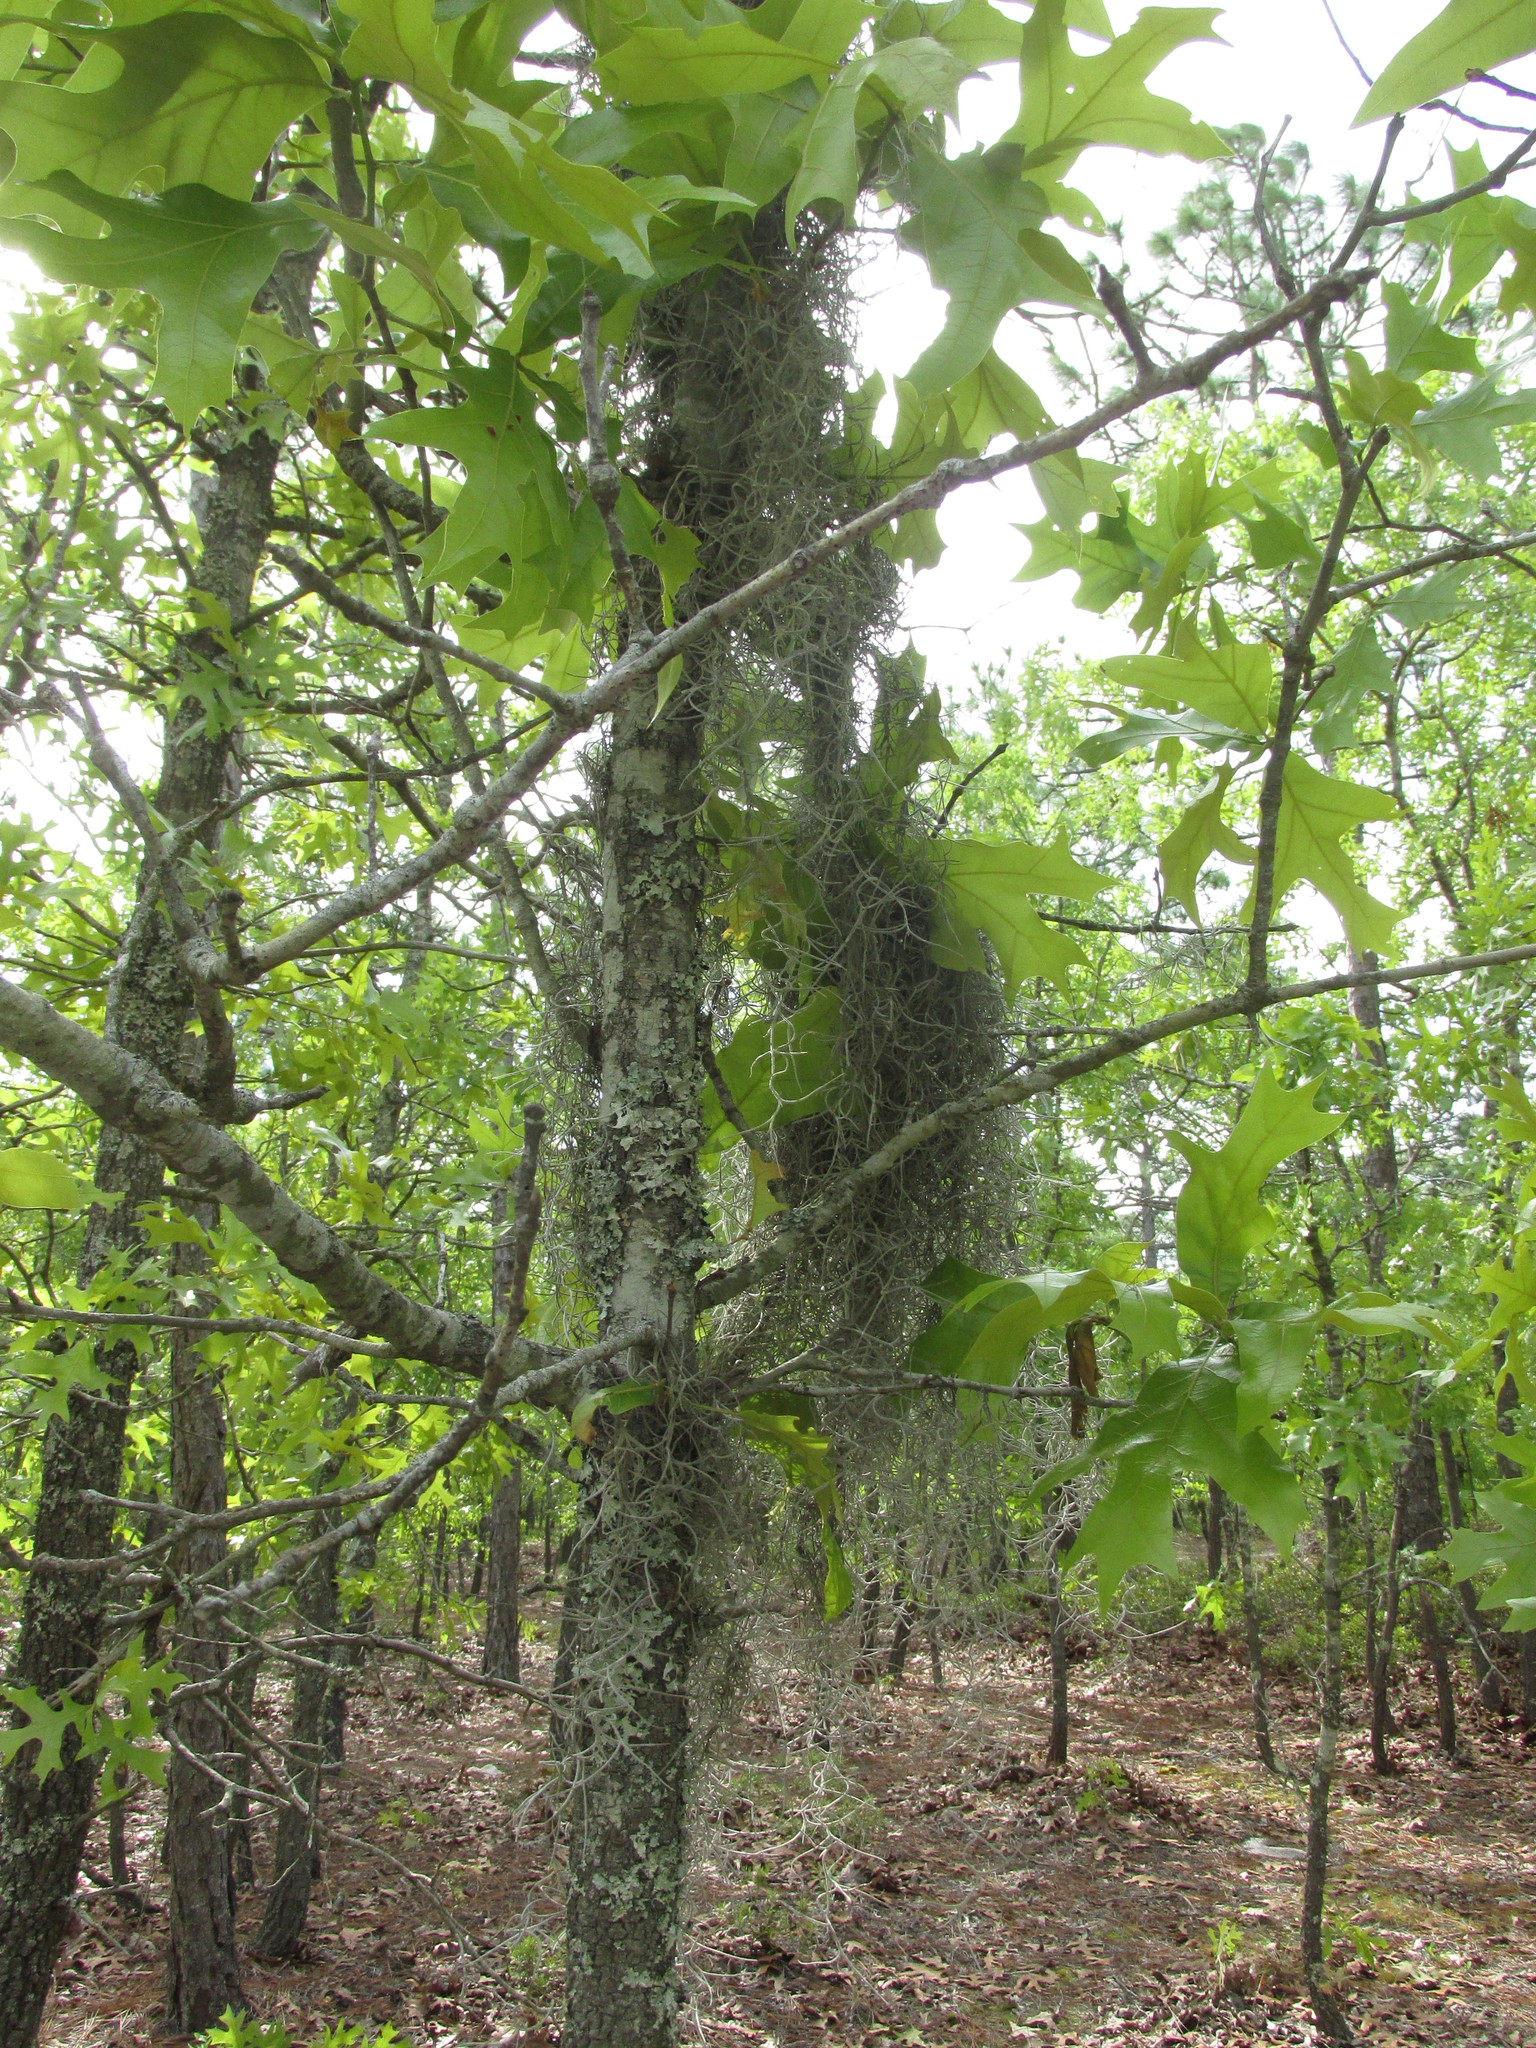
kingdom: Plantae
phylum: Tracheophyta
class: Liliopsida
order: Poales
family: Bromeliaceae
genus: Tillandsia
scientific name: Tillandsia usneoides
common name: Spanish moss
